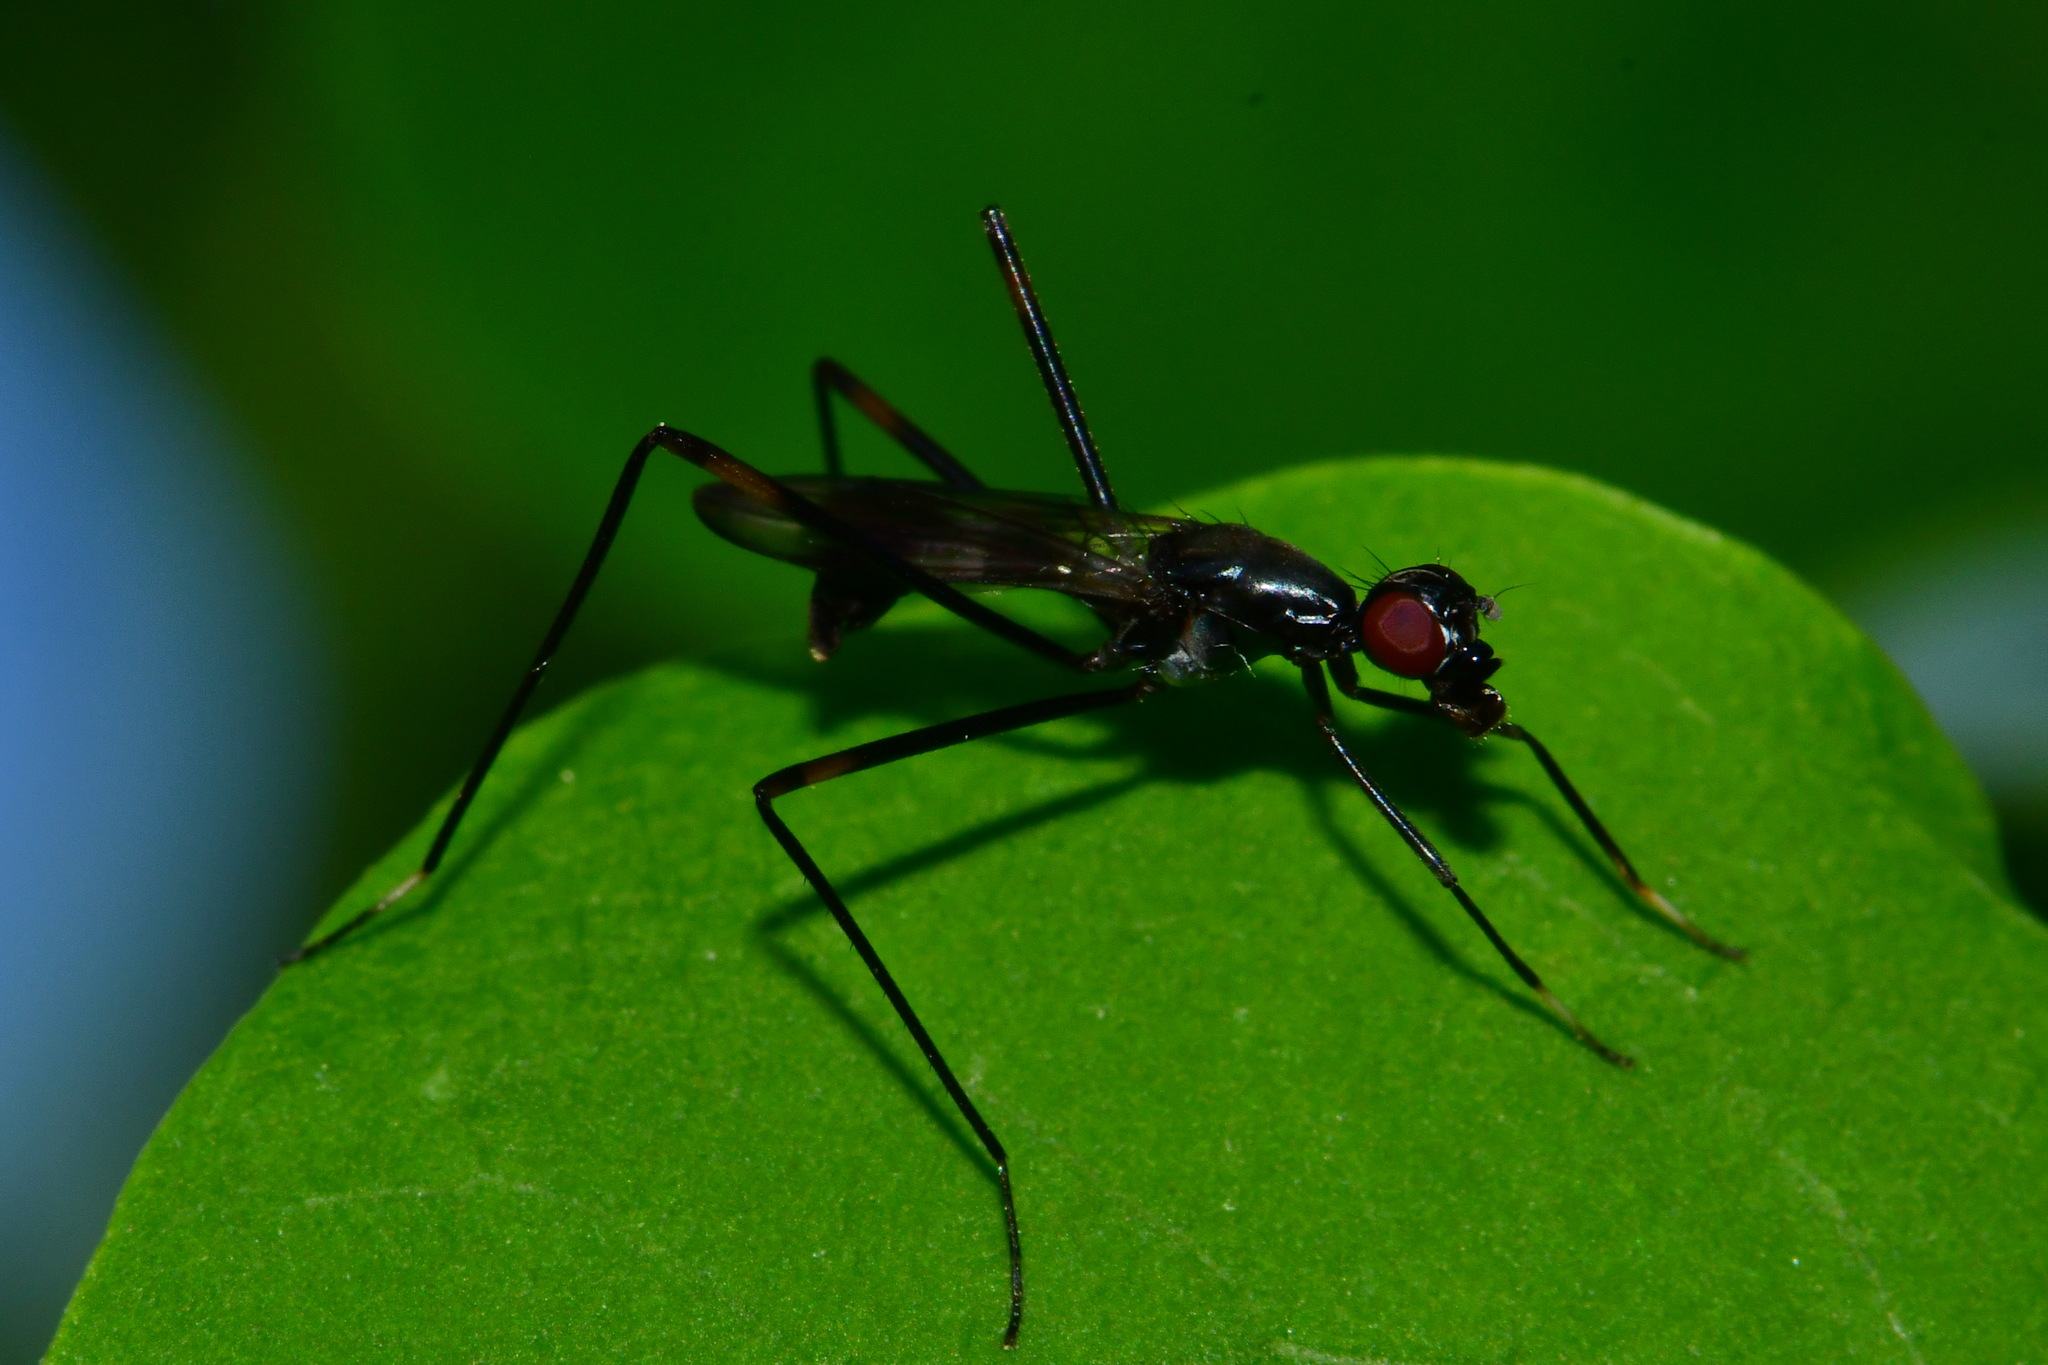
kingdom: Animalia
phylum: Arthropoda
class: Insecta
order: Diptera
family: Micropezidae
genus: Rainieria
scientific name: Rainieria calceata
